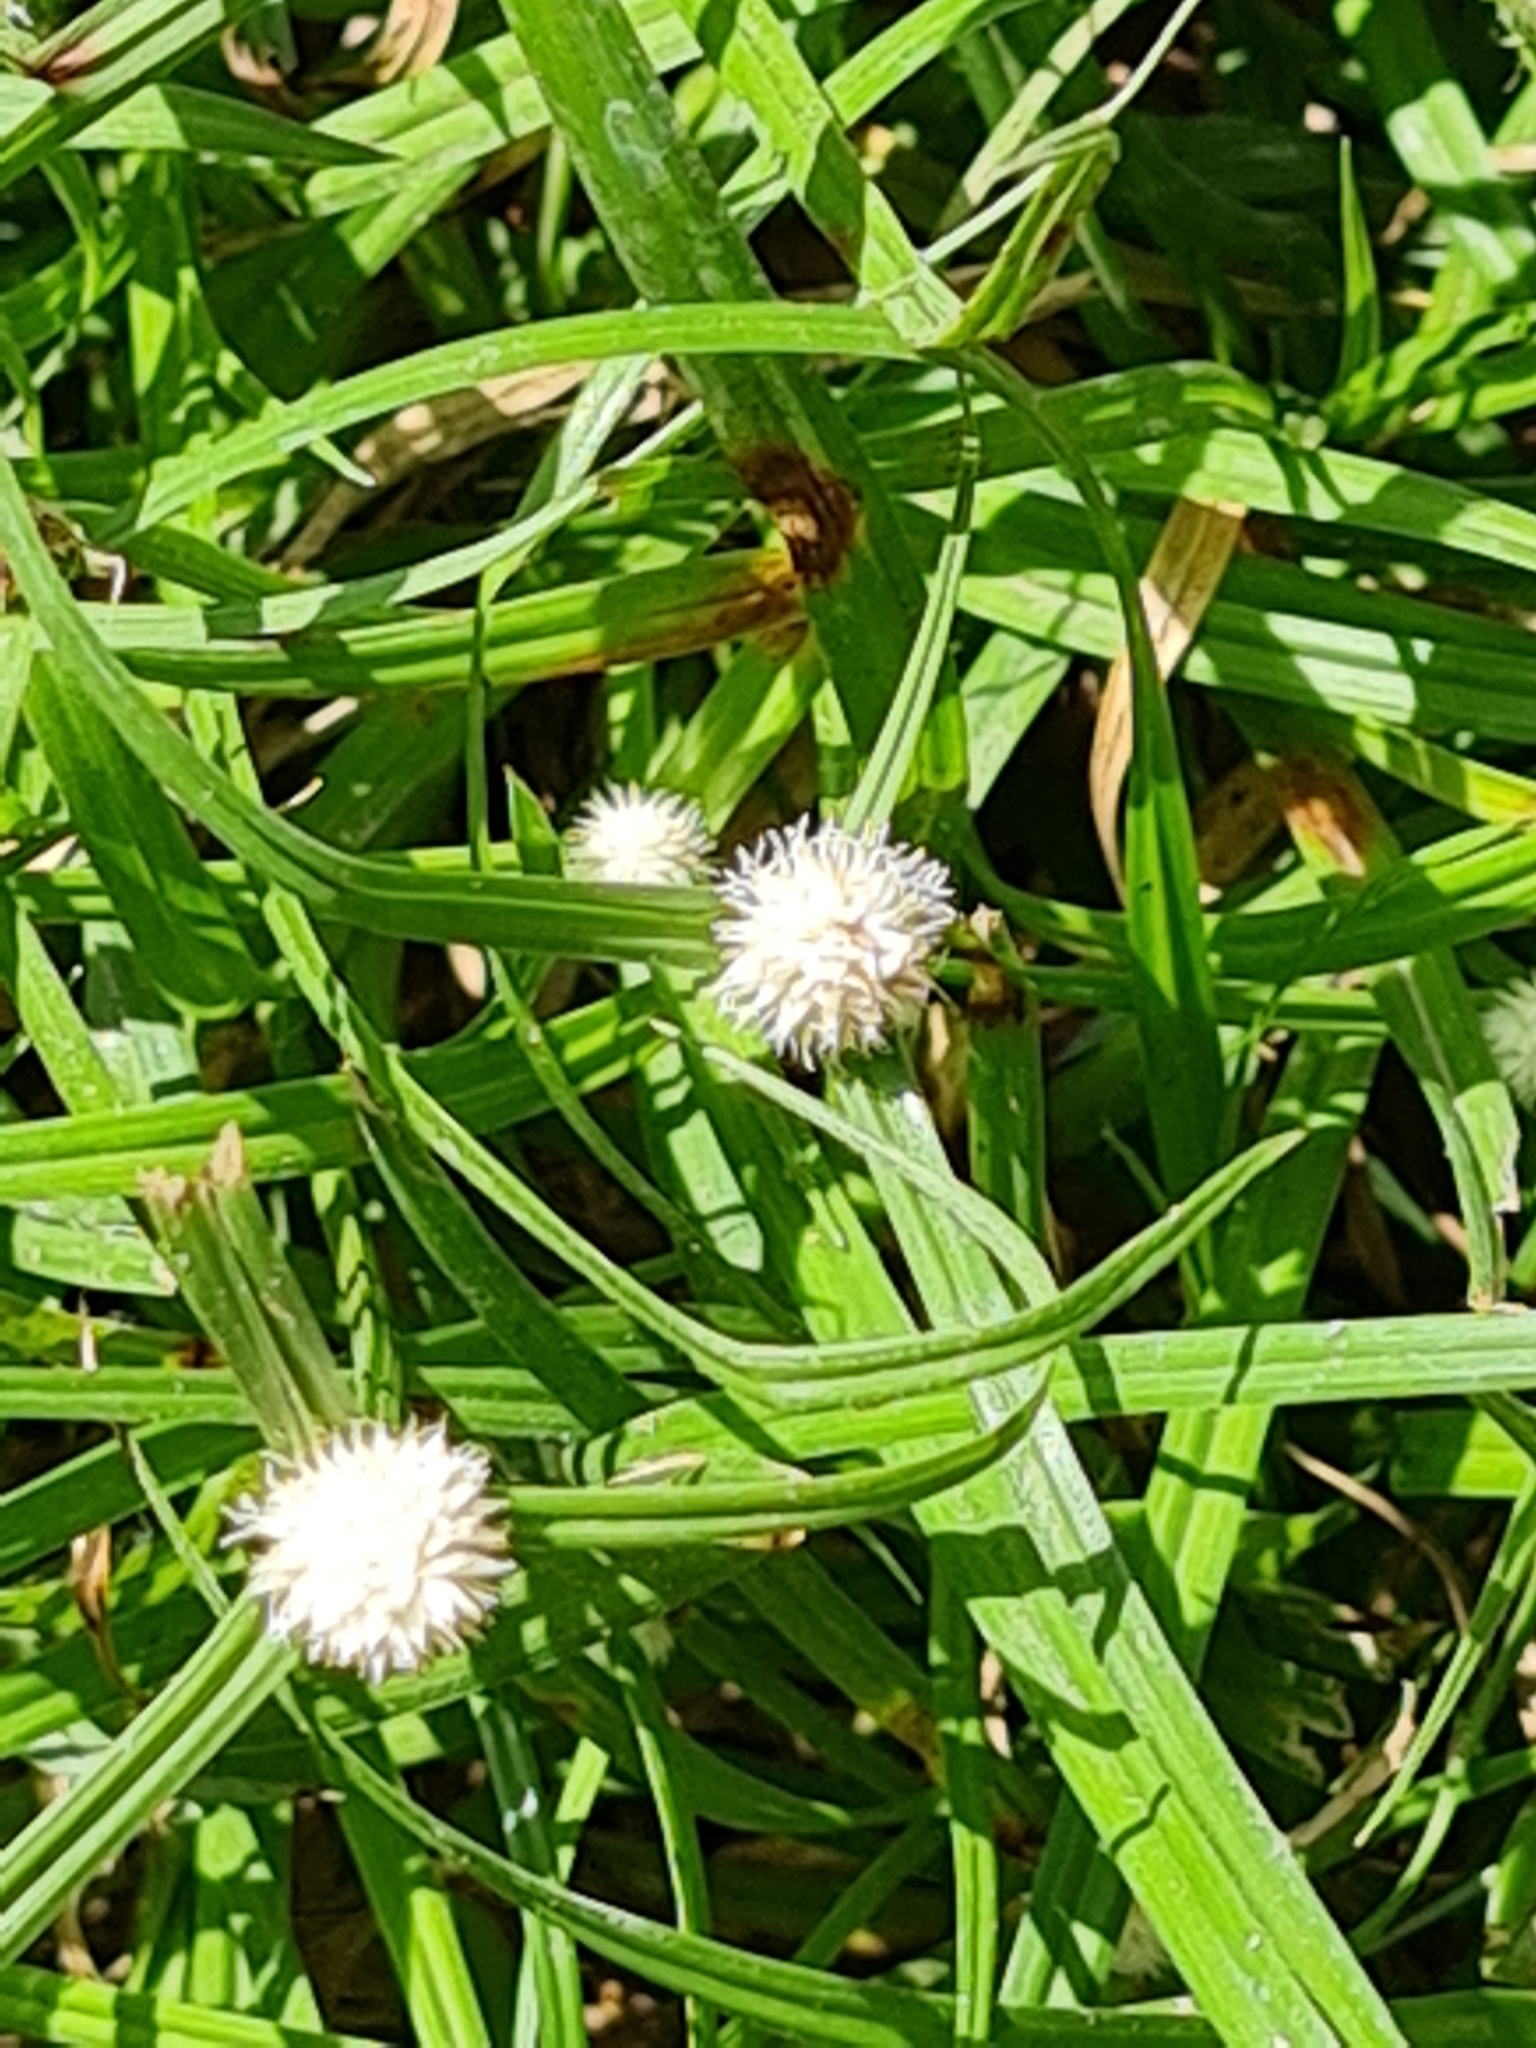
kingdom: Plantae
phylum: Tracheophyta
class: Liliopsida
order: Poales
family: Cyperaceae
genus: Cyperus
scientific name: Cyperus mindorensis
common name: Flatsedge
